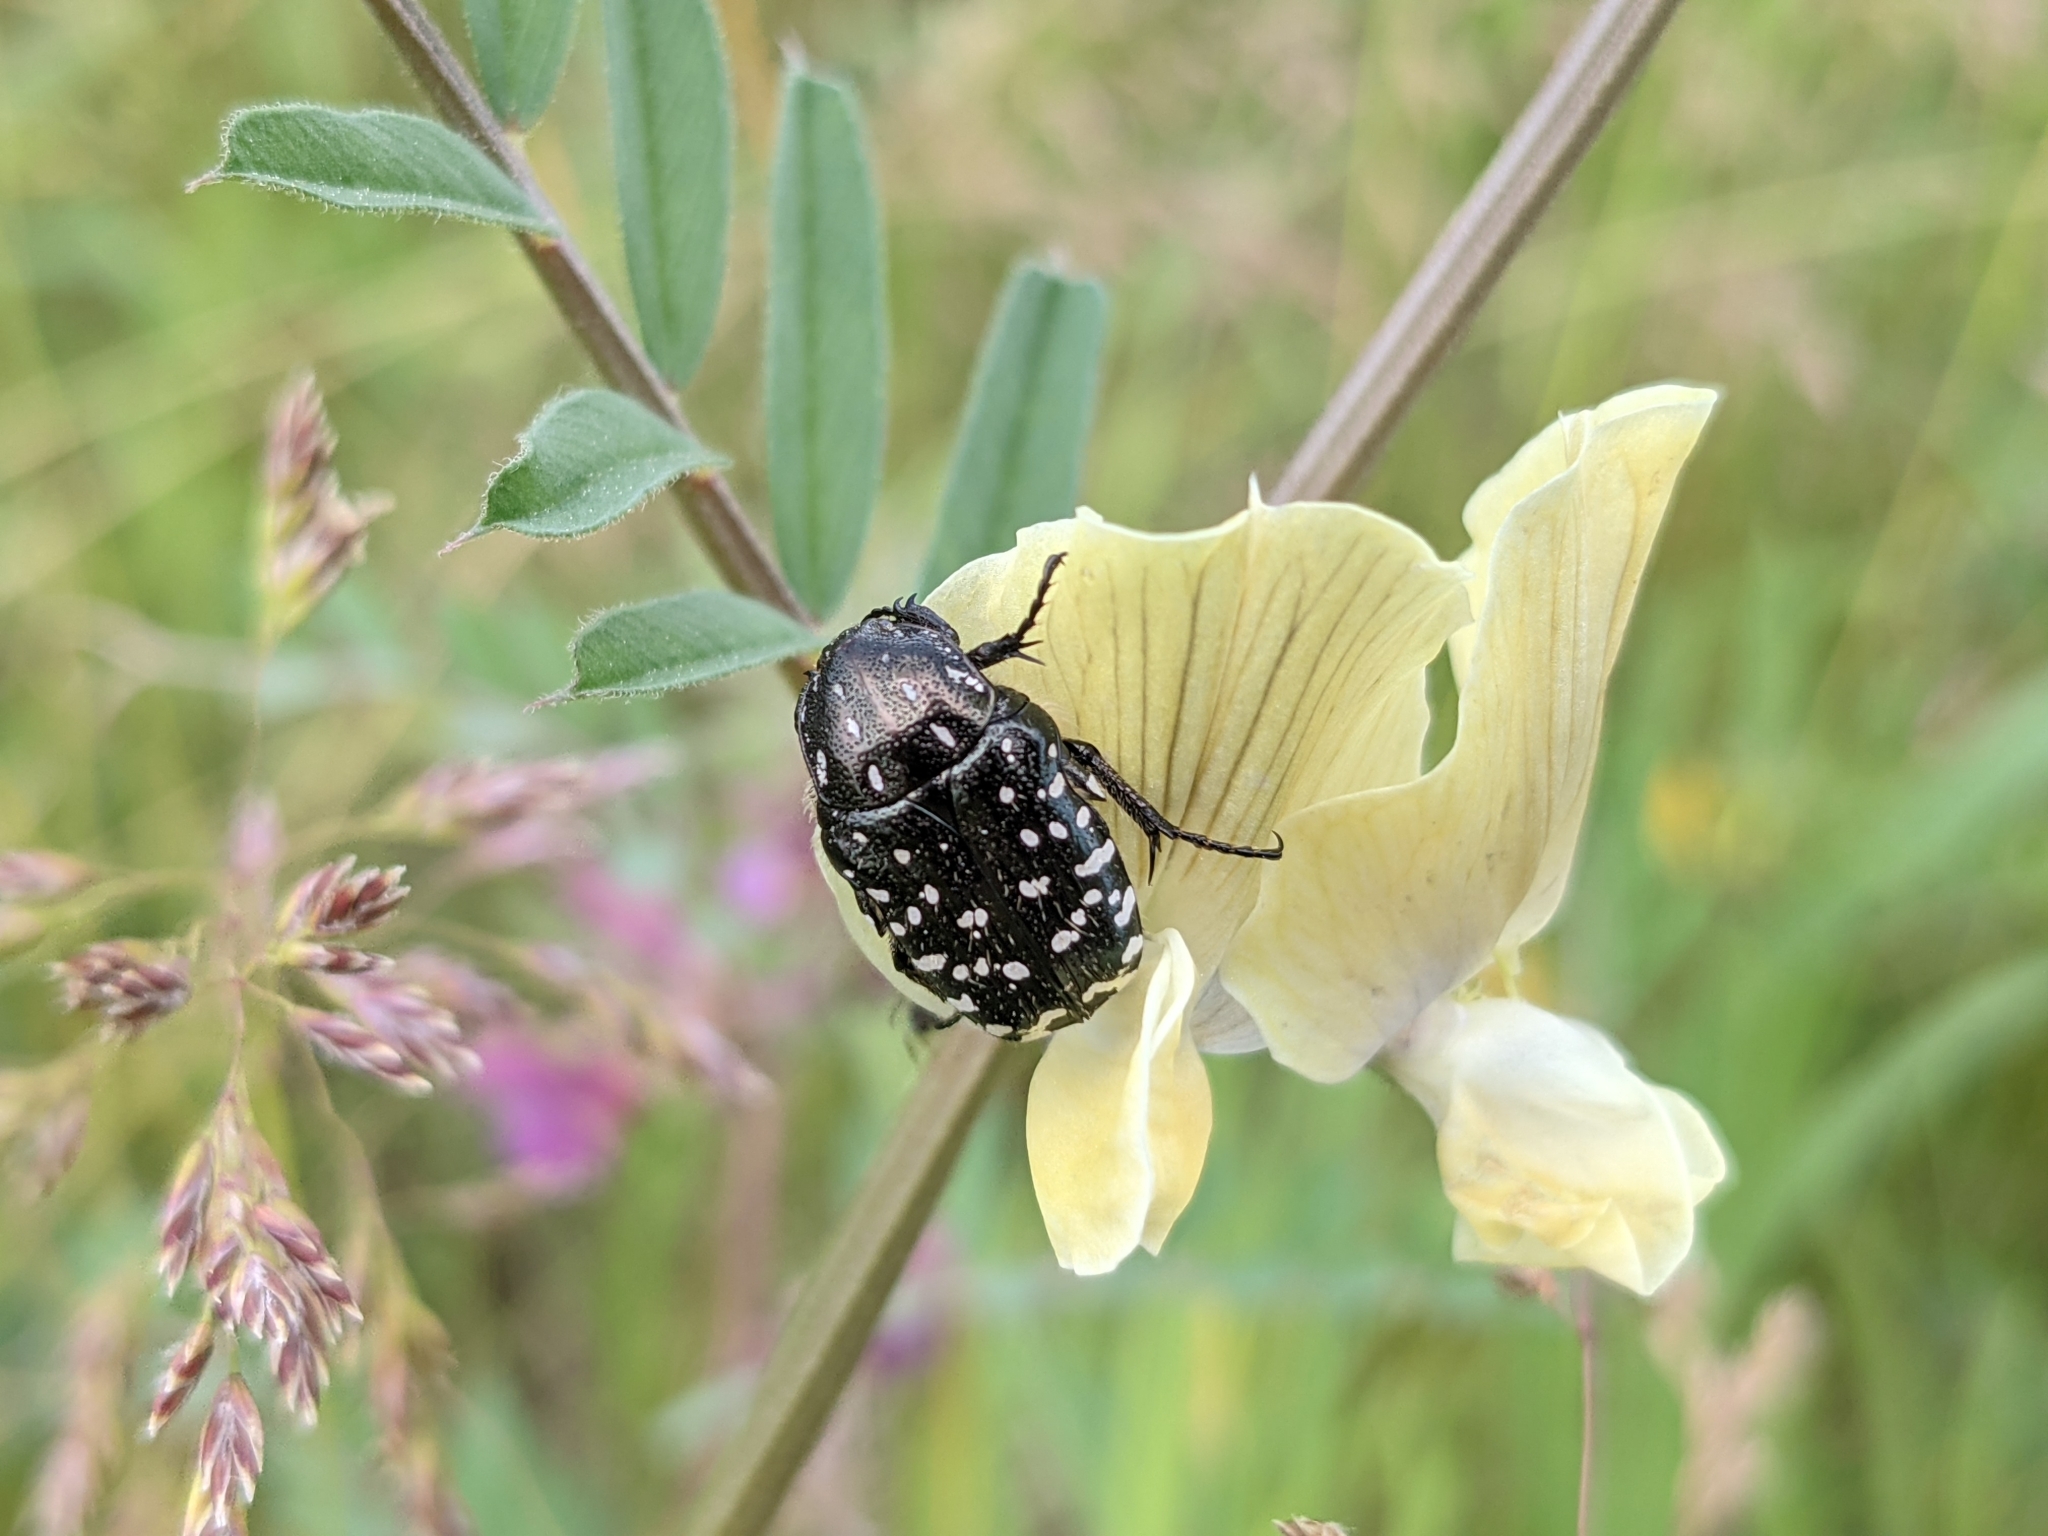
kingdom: Animalia
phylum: Arthropoda
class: Insecta
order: Coleoptera
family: Scarabaeidae
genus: Oxythyrea
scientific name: Oxythyrea funesta
